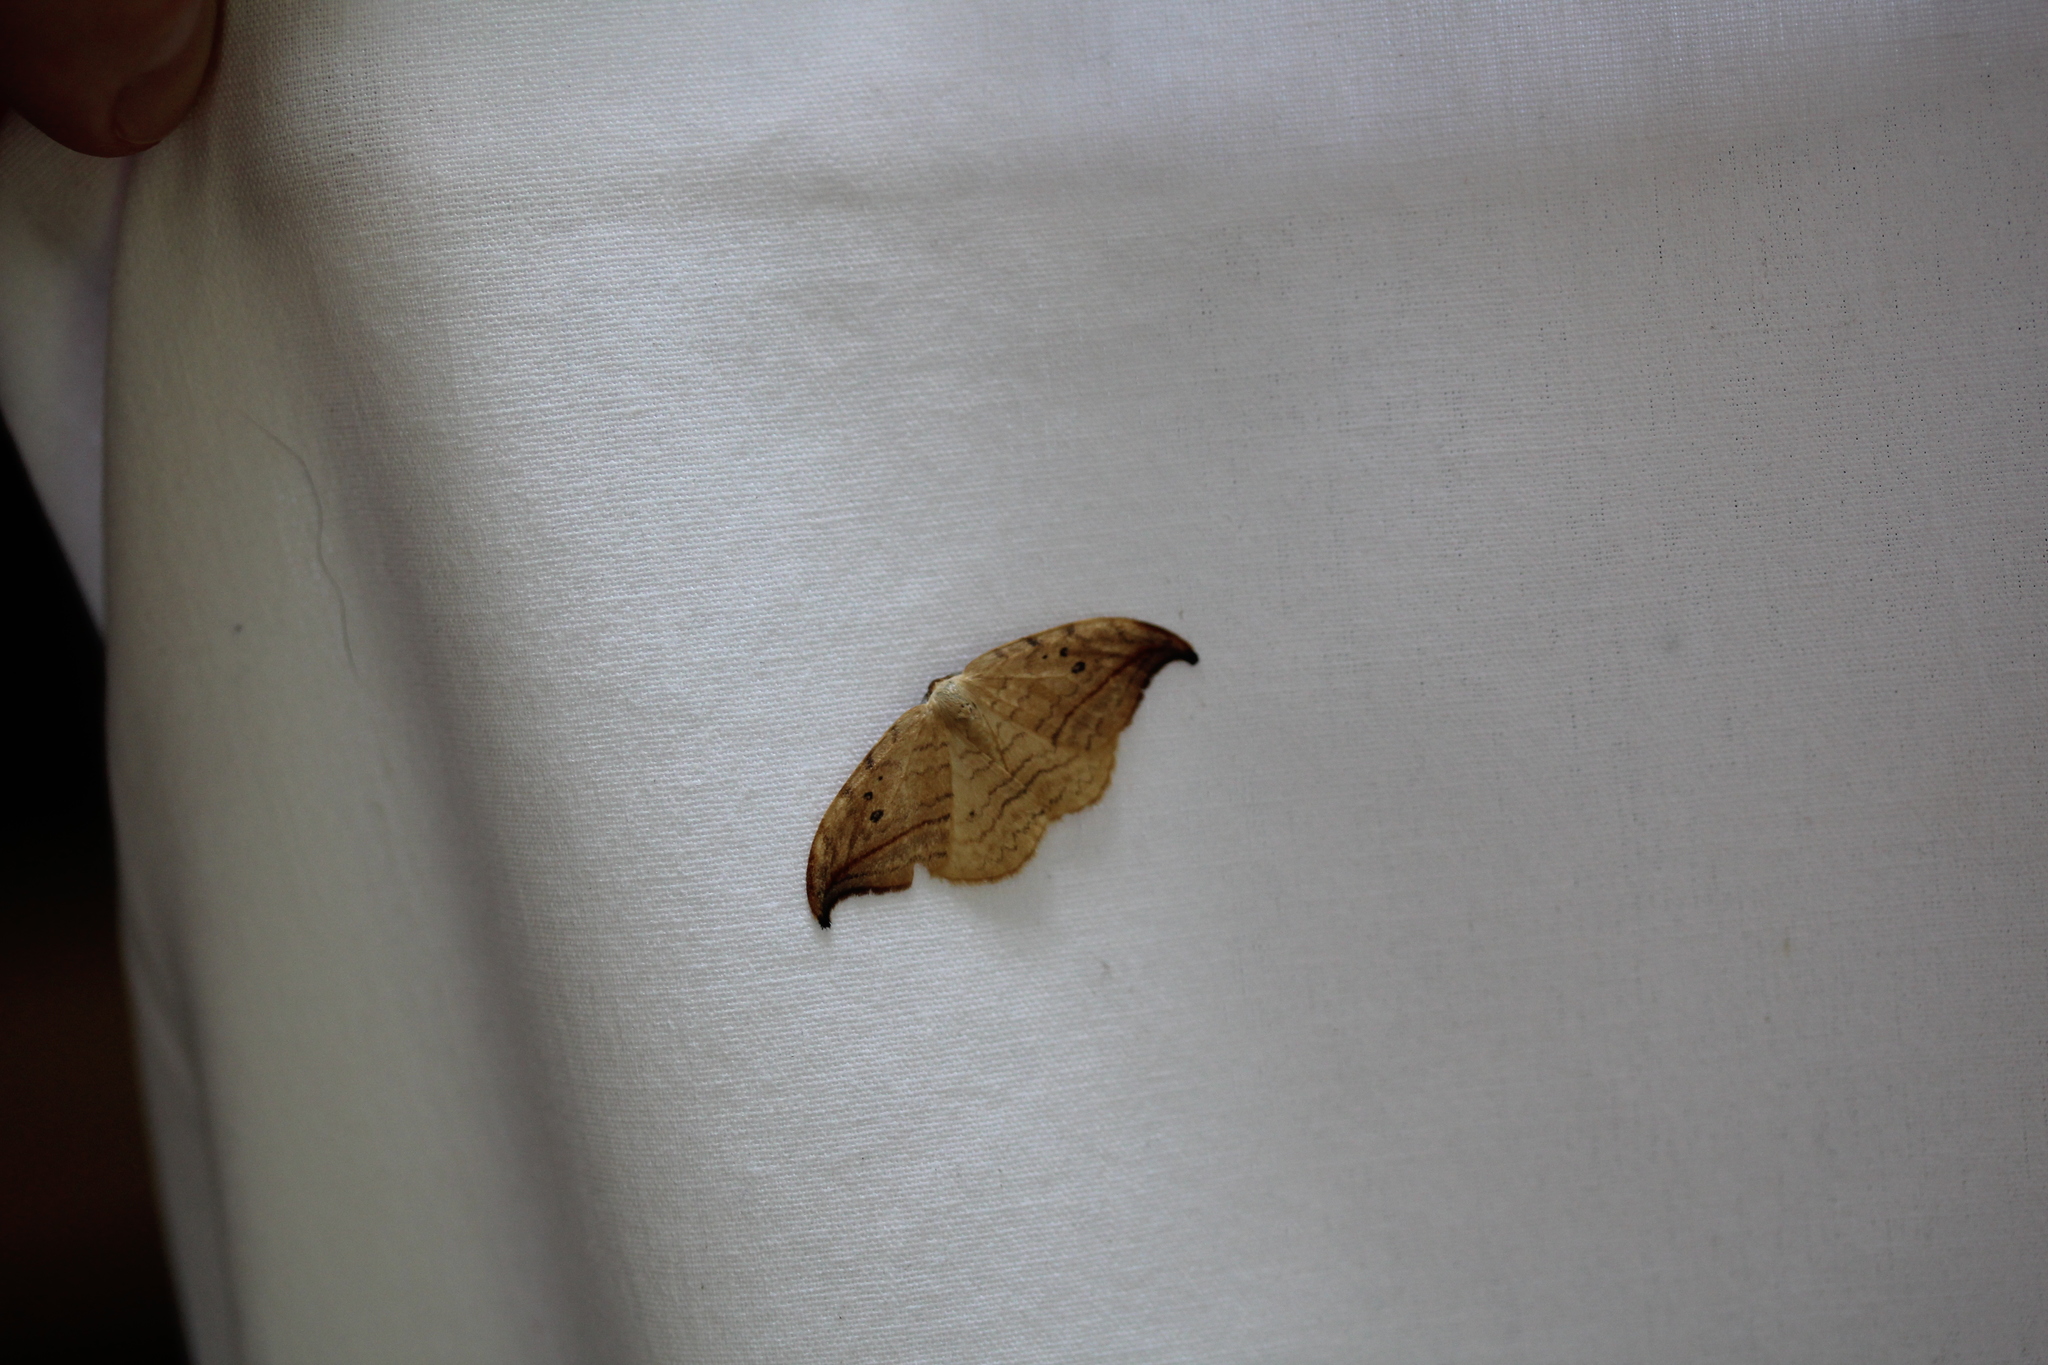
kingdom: Animalia
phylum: Arthropoda
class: Insecta
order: Lepidoptera
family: Drepanidae
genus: Drepana
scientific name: Drepana arcuata
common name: Arched hooktip moth
